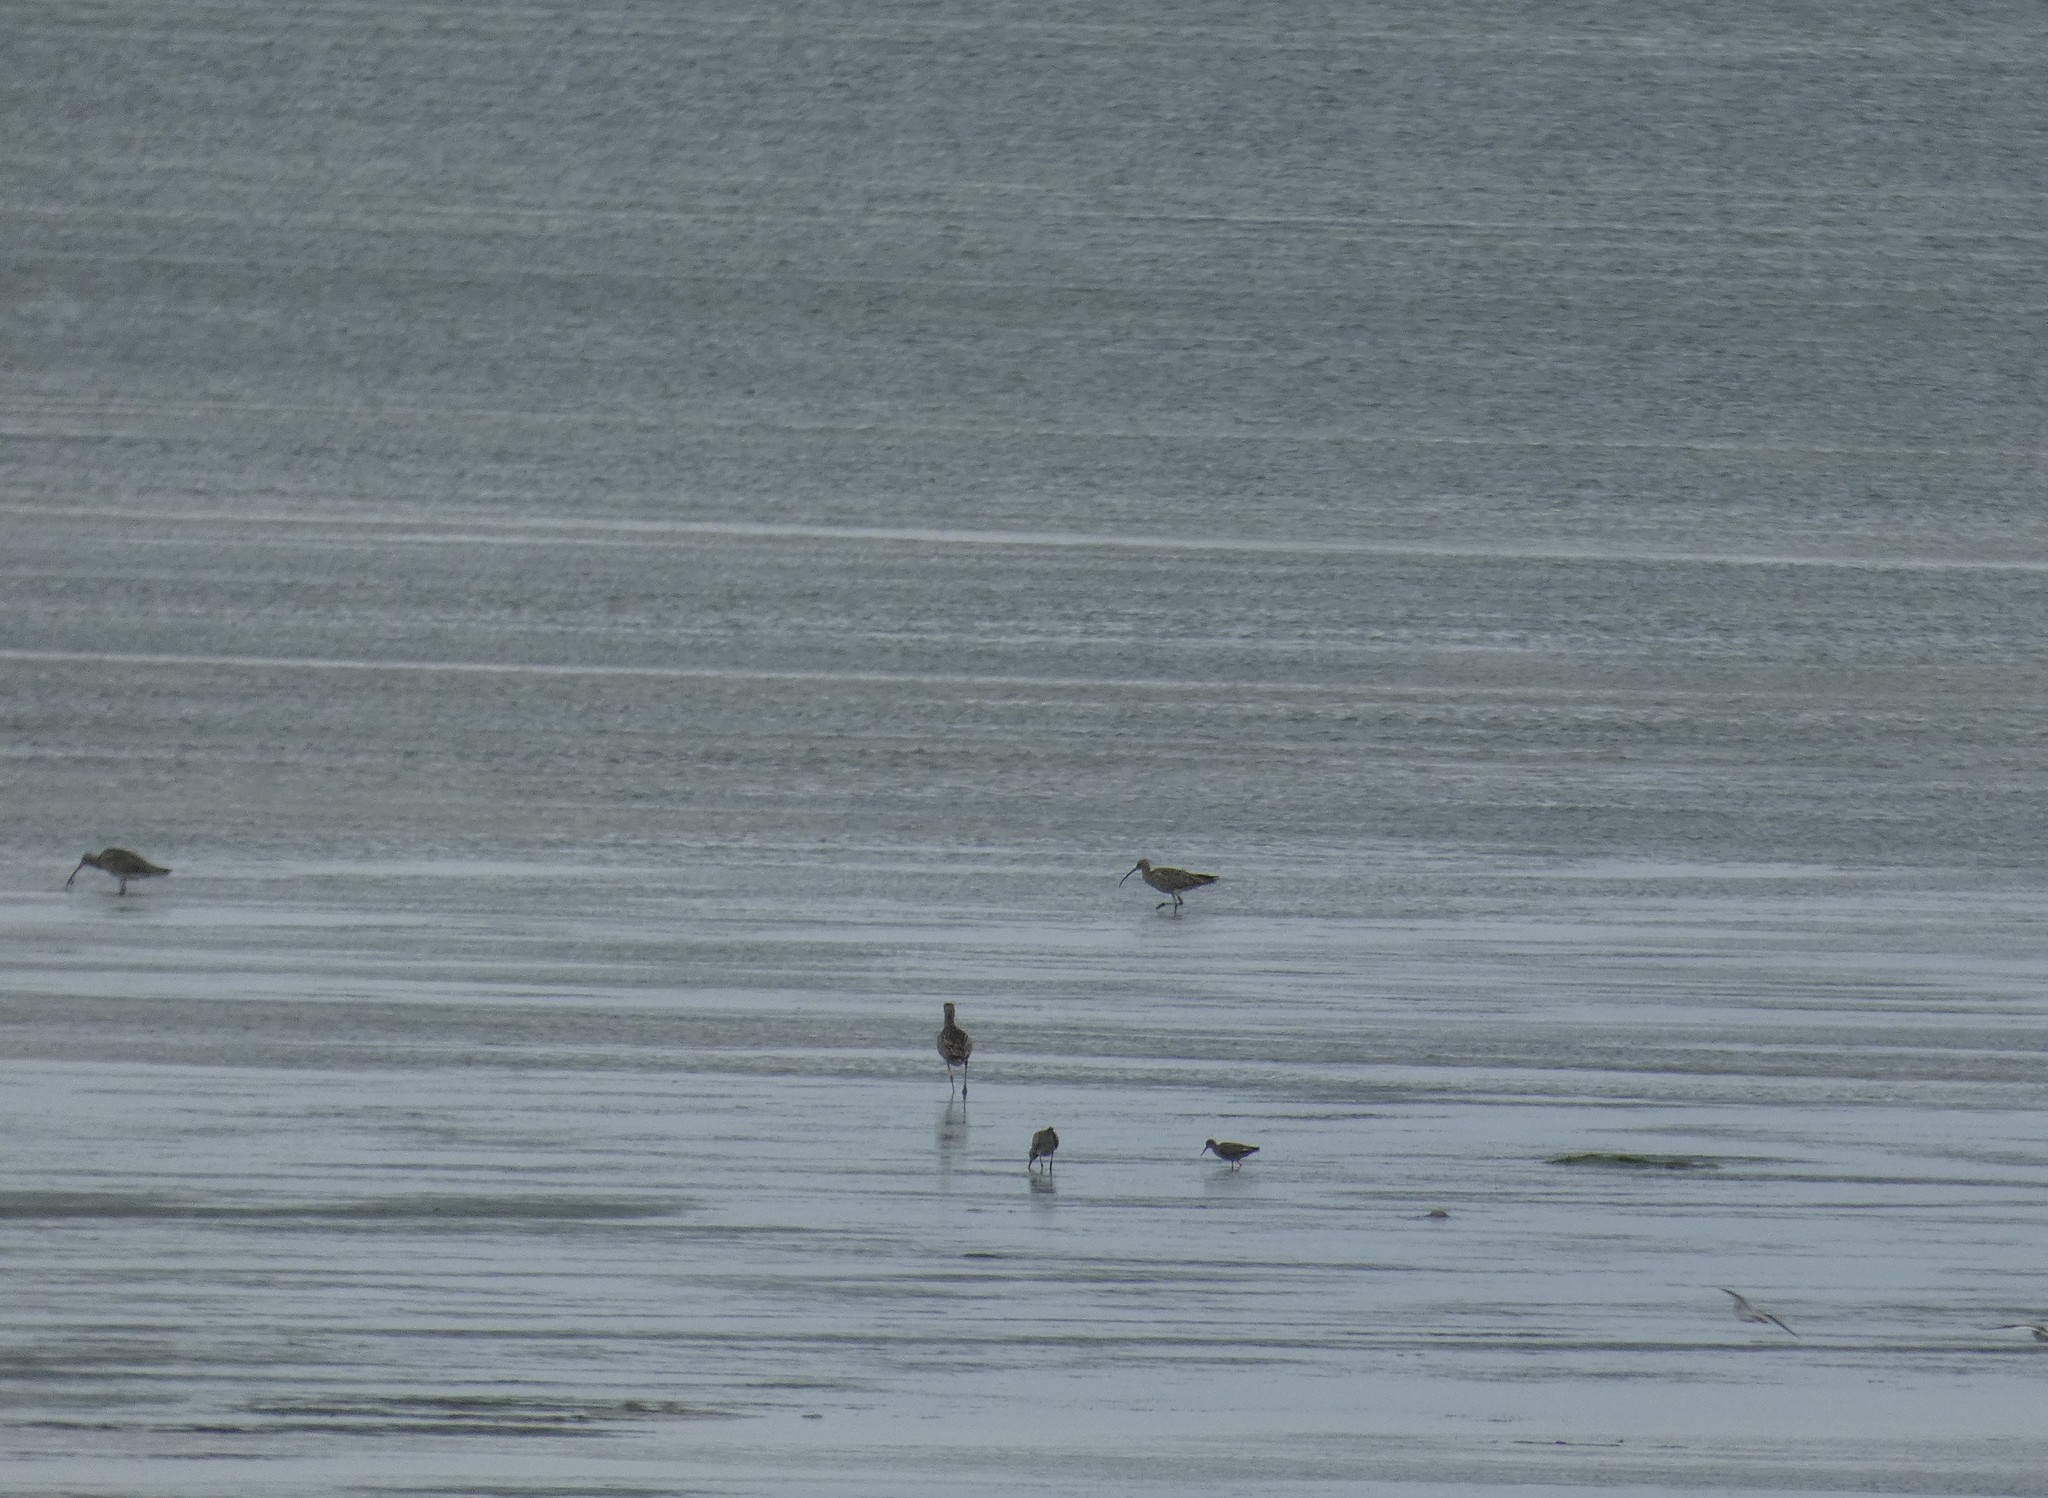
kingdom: Animalia
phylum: Chordata
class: Aves
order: Charadriiformes
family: Scolopacidae
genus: Numenius
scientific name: Numenius arquata
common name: Eurasian curlew
